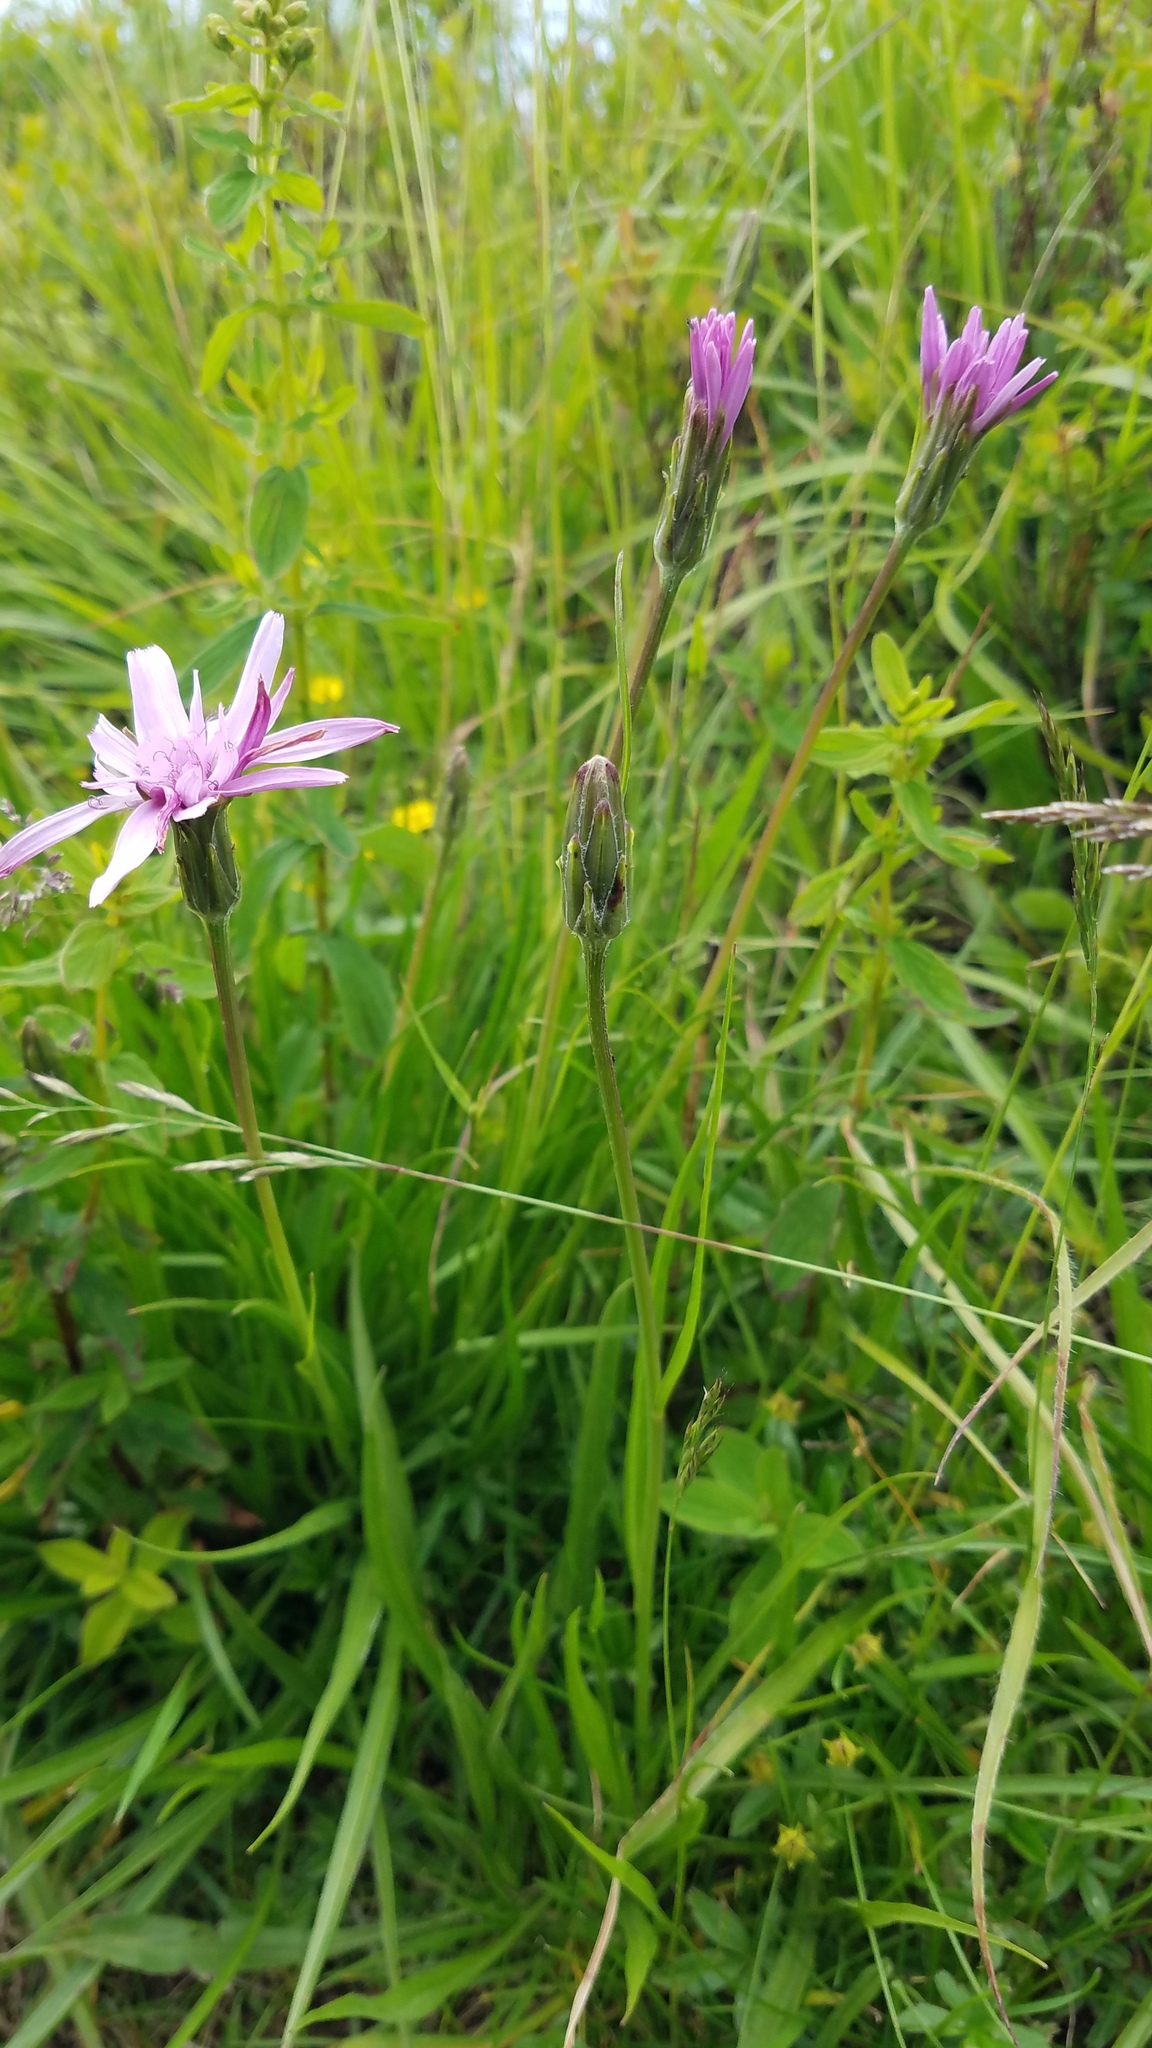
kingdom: Plantae
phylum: Tracheophyta
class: Magnoliopsida
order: Asterales
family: Asteraceae
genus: Scorzonera
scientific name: Scorzonera rosea
